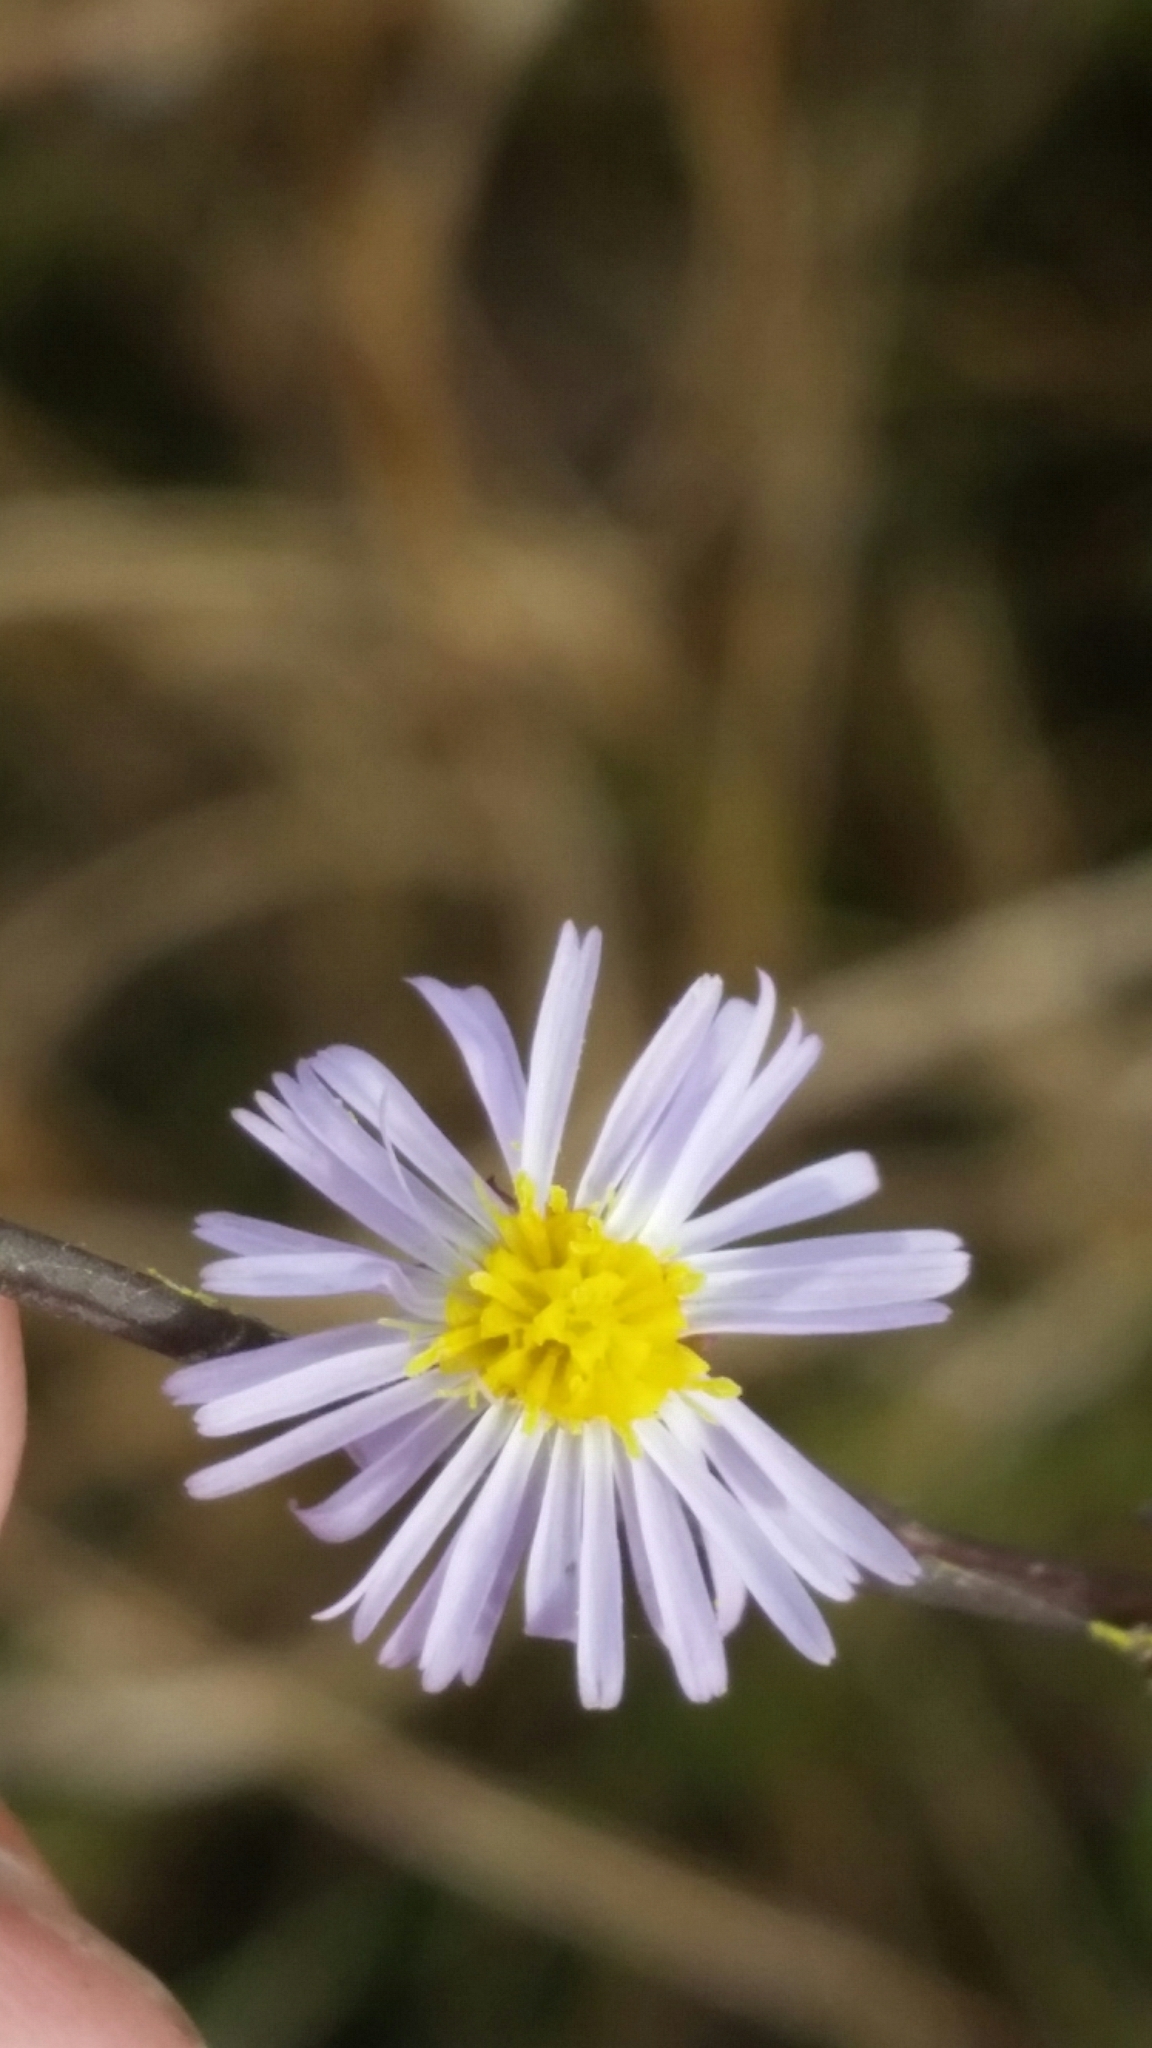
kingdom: Plantae
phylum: Tracheophyta
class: Magnoliopsida
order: Asterales
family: Asteraceae
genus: Symphyotrichum
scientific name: Symphyotrichum subulatum
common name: Annual saltmarsh aster
